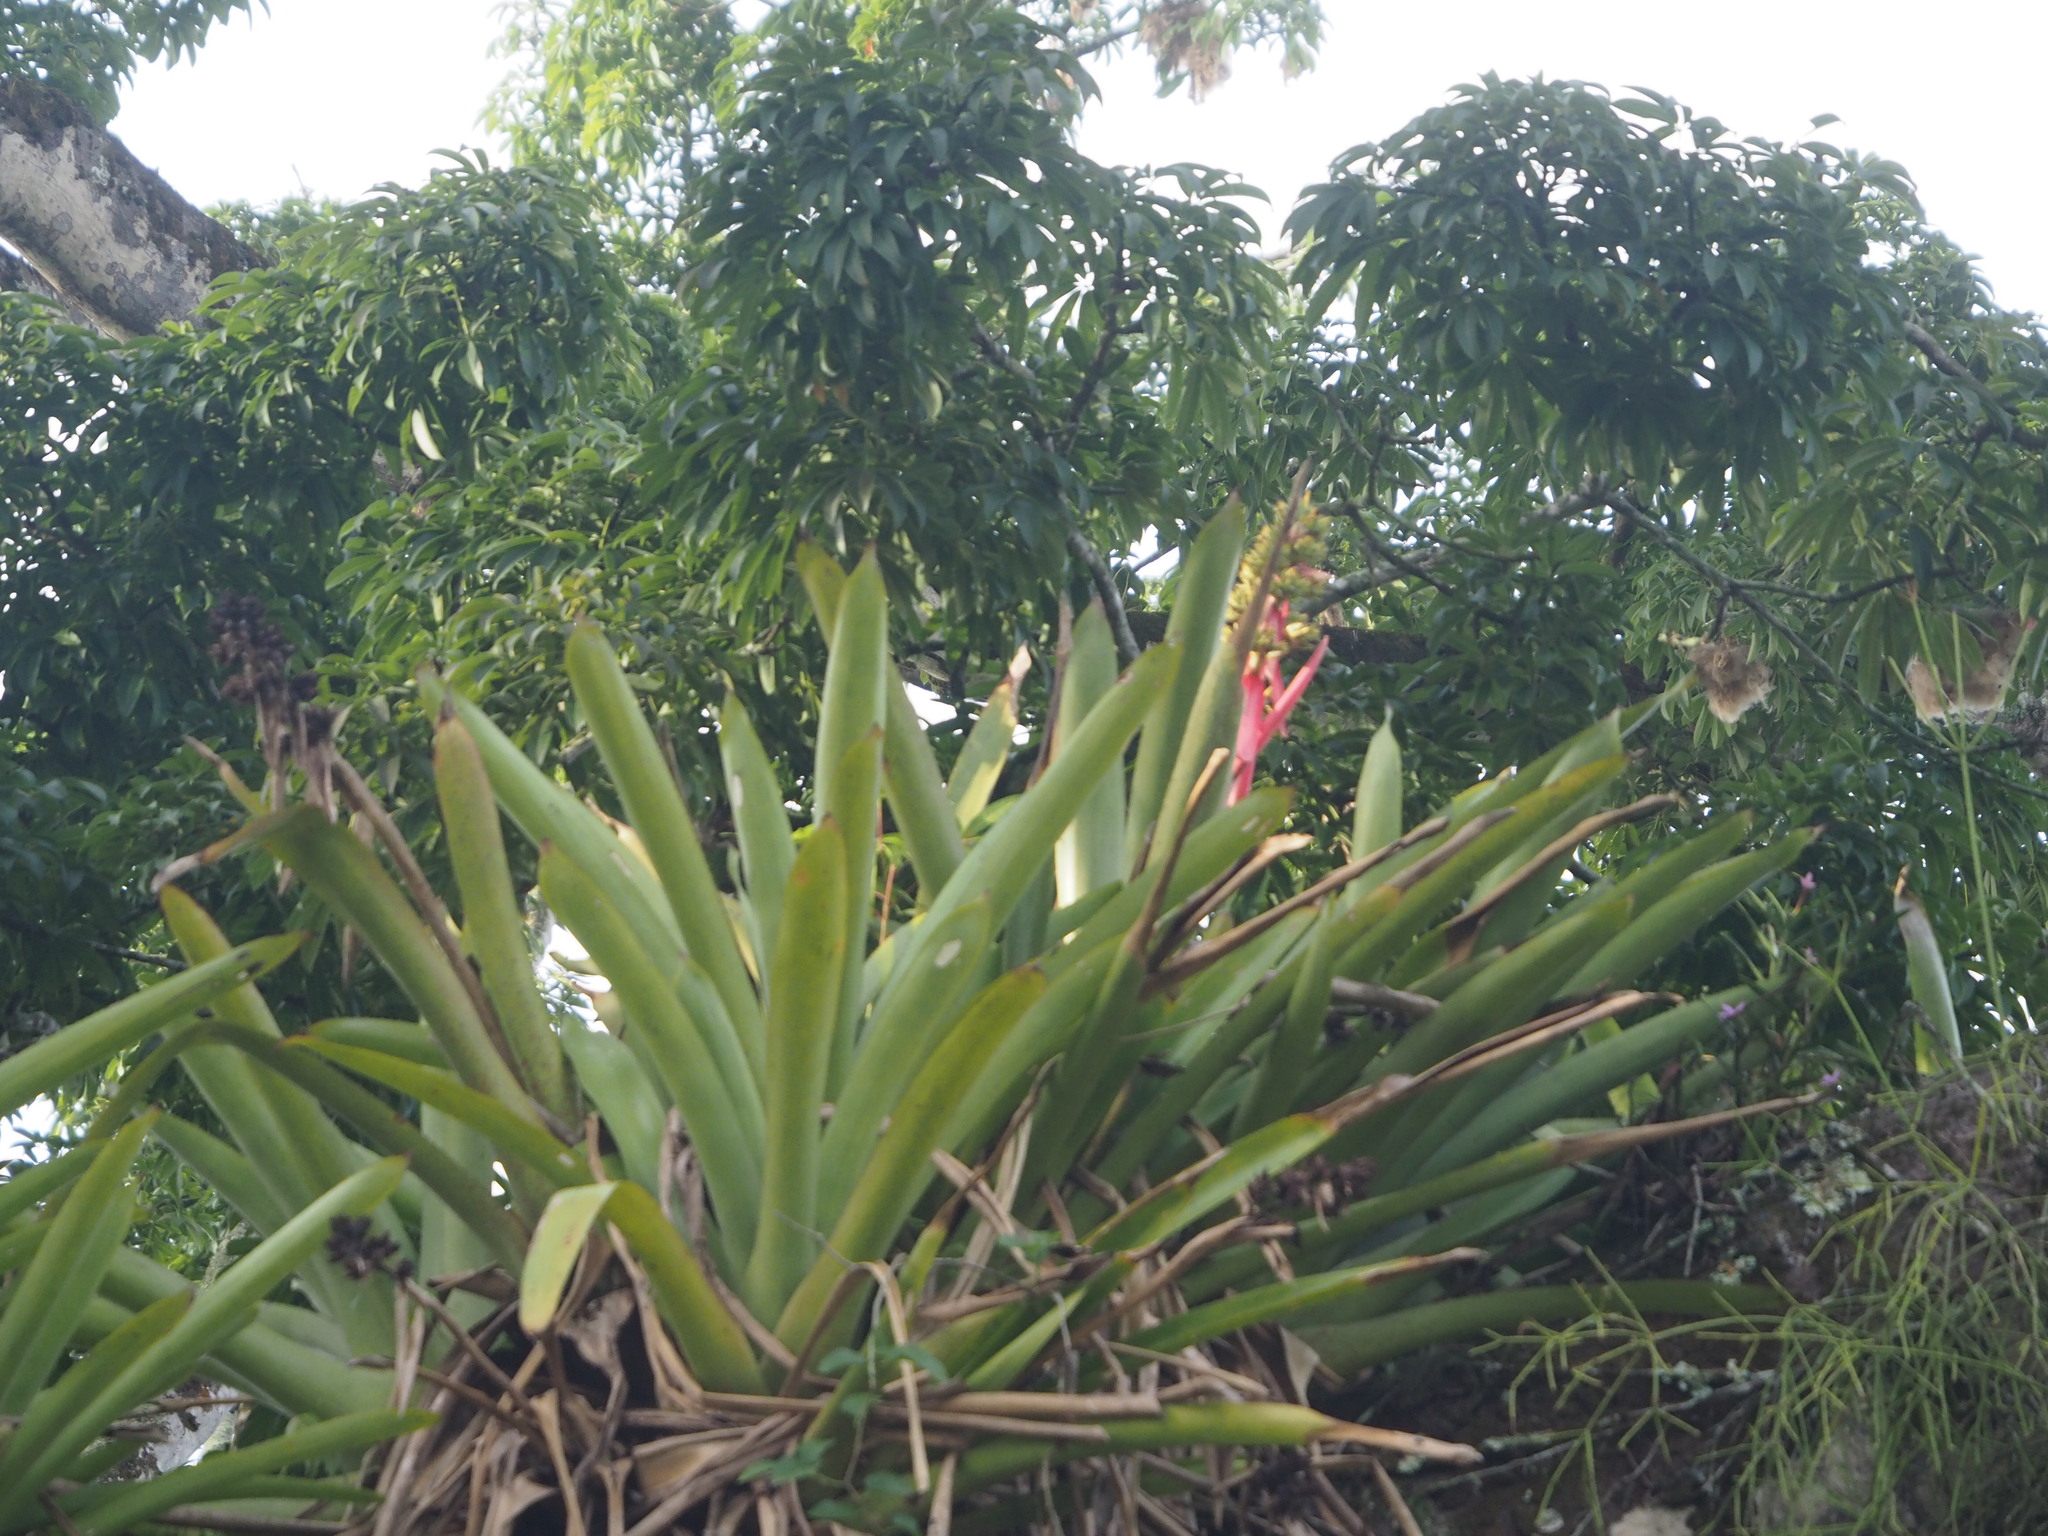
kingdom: Plantae
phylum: Tracheophyta
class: Liliopsida
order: Poales
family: Bromeliaceae
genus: Aechmea
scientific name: Aechmea aquilega
